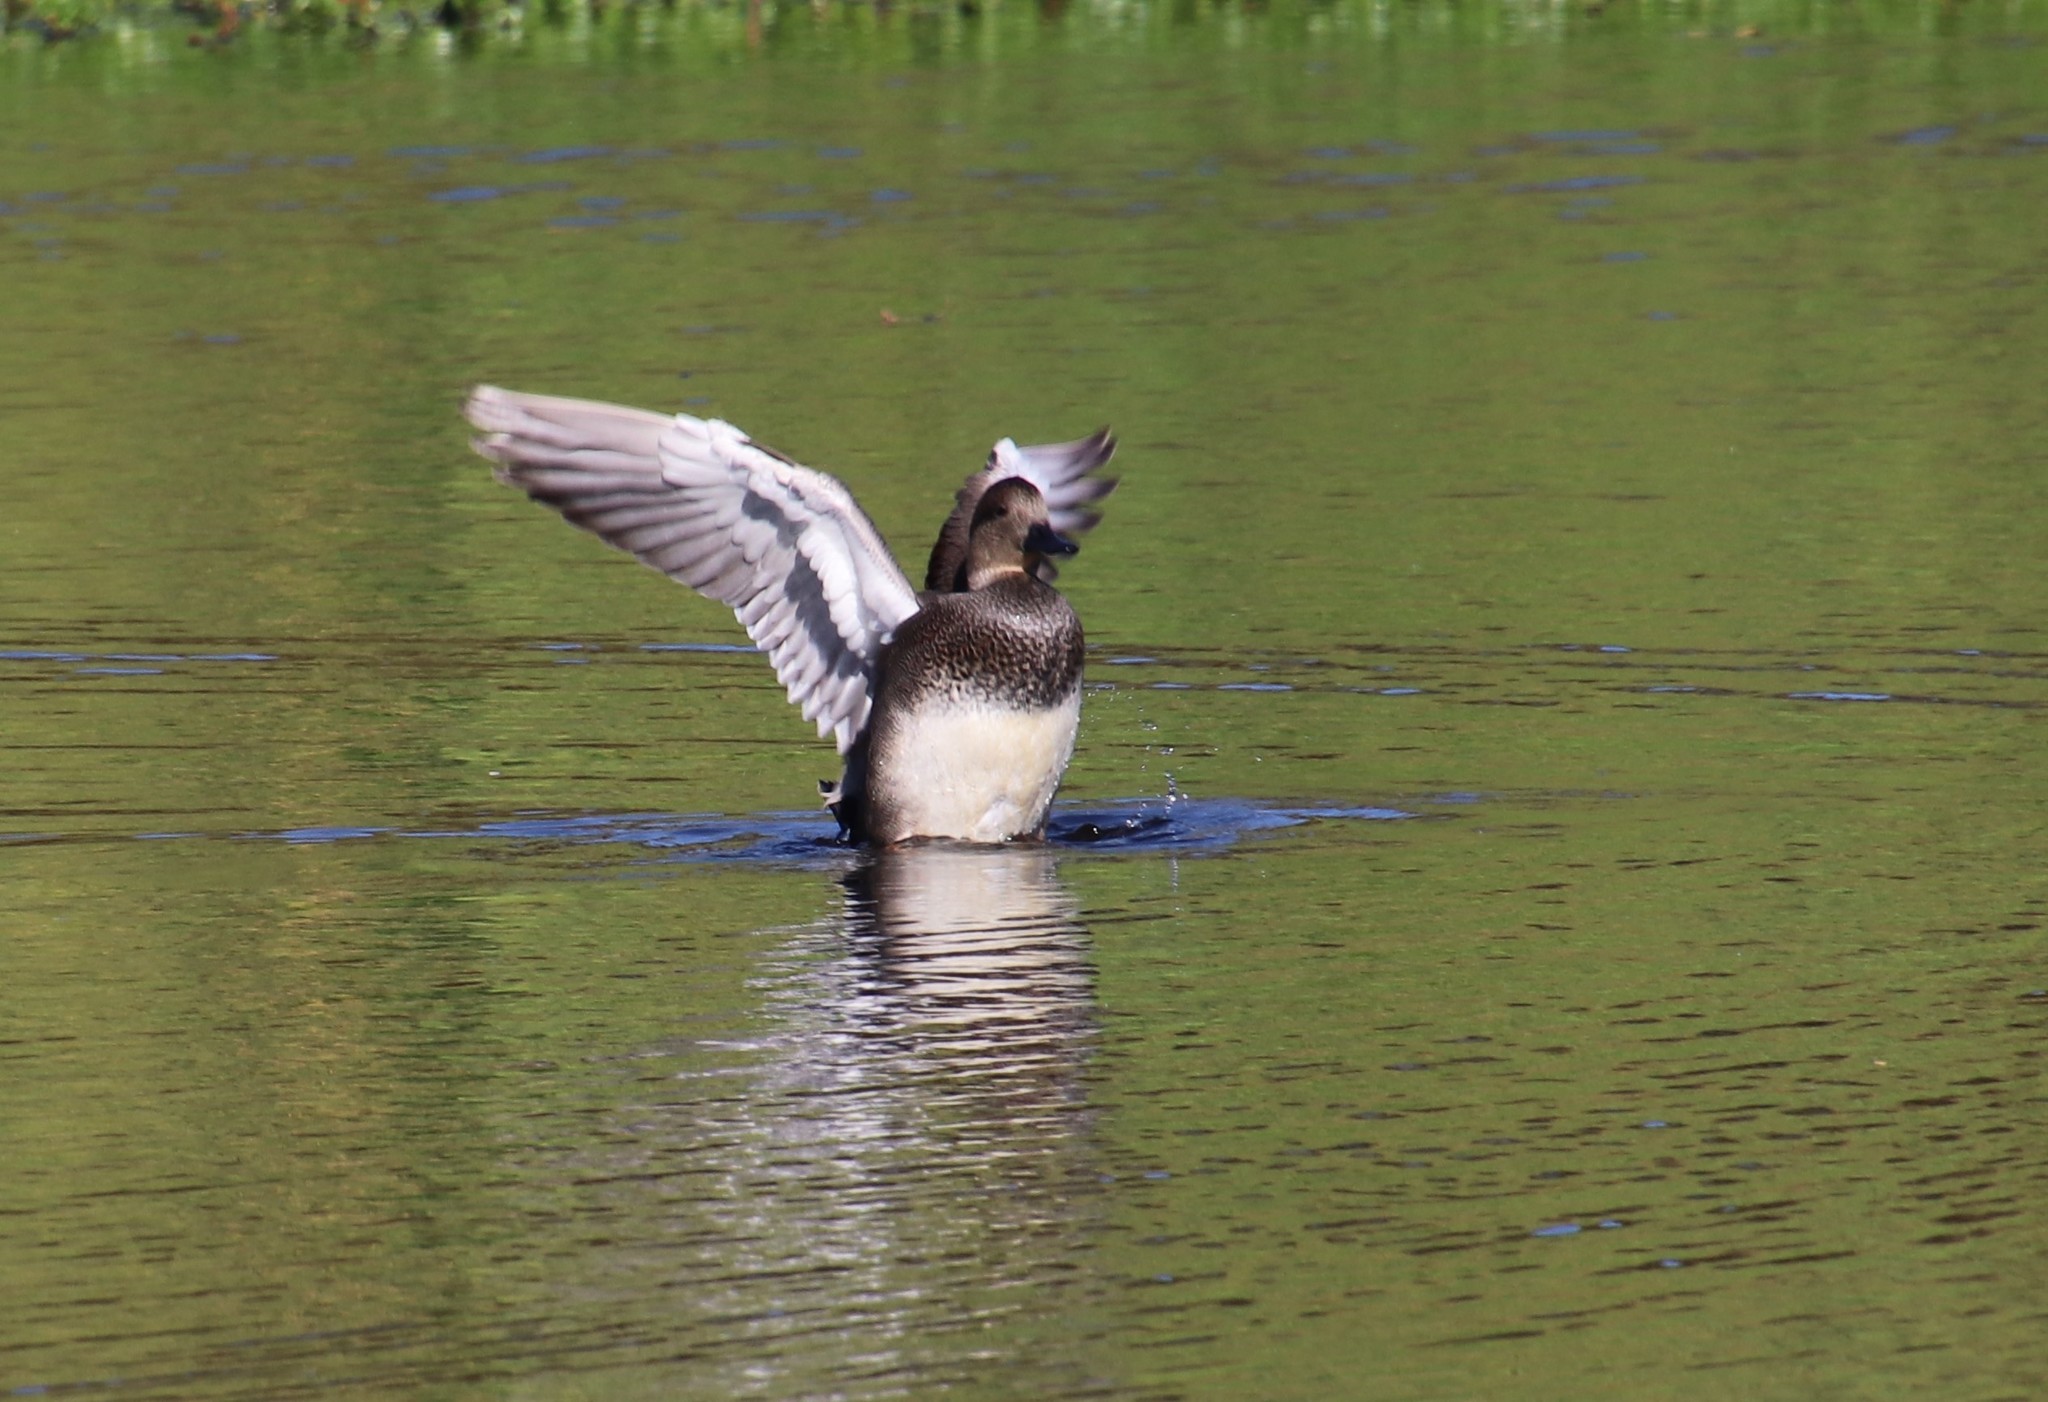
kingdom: Animalia
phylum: Chordata
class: Aves
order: Anseriformes
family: Anatidae
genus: Mareca
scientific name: Mareca strepera
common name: Gadwall
